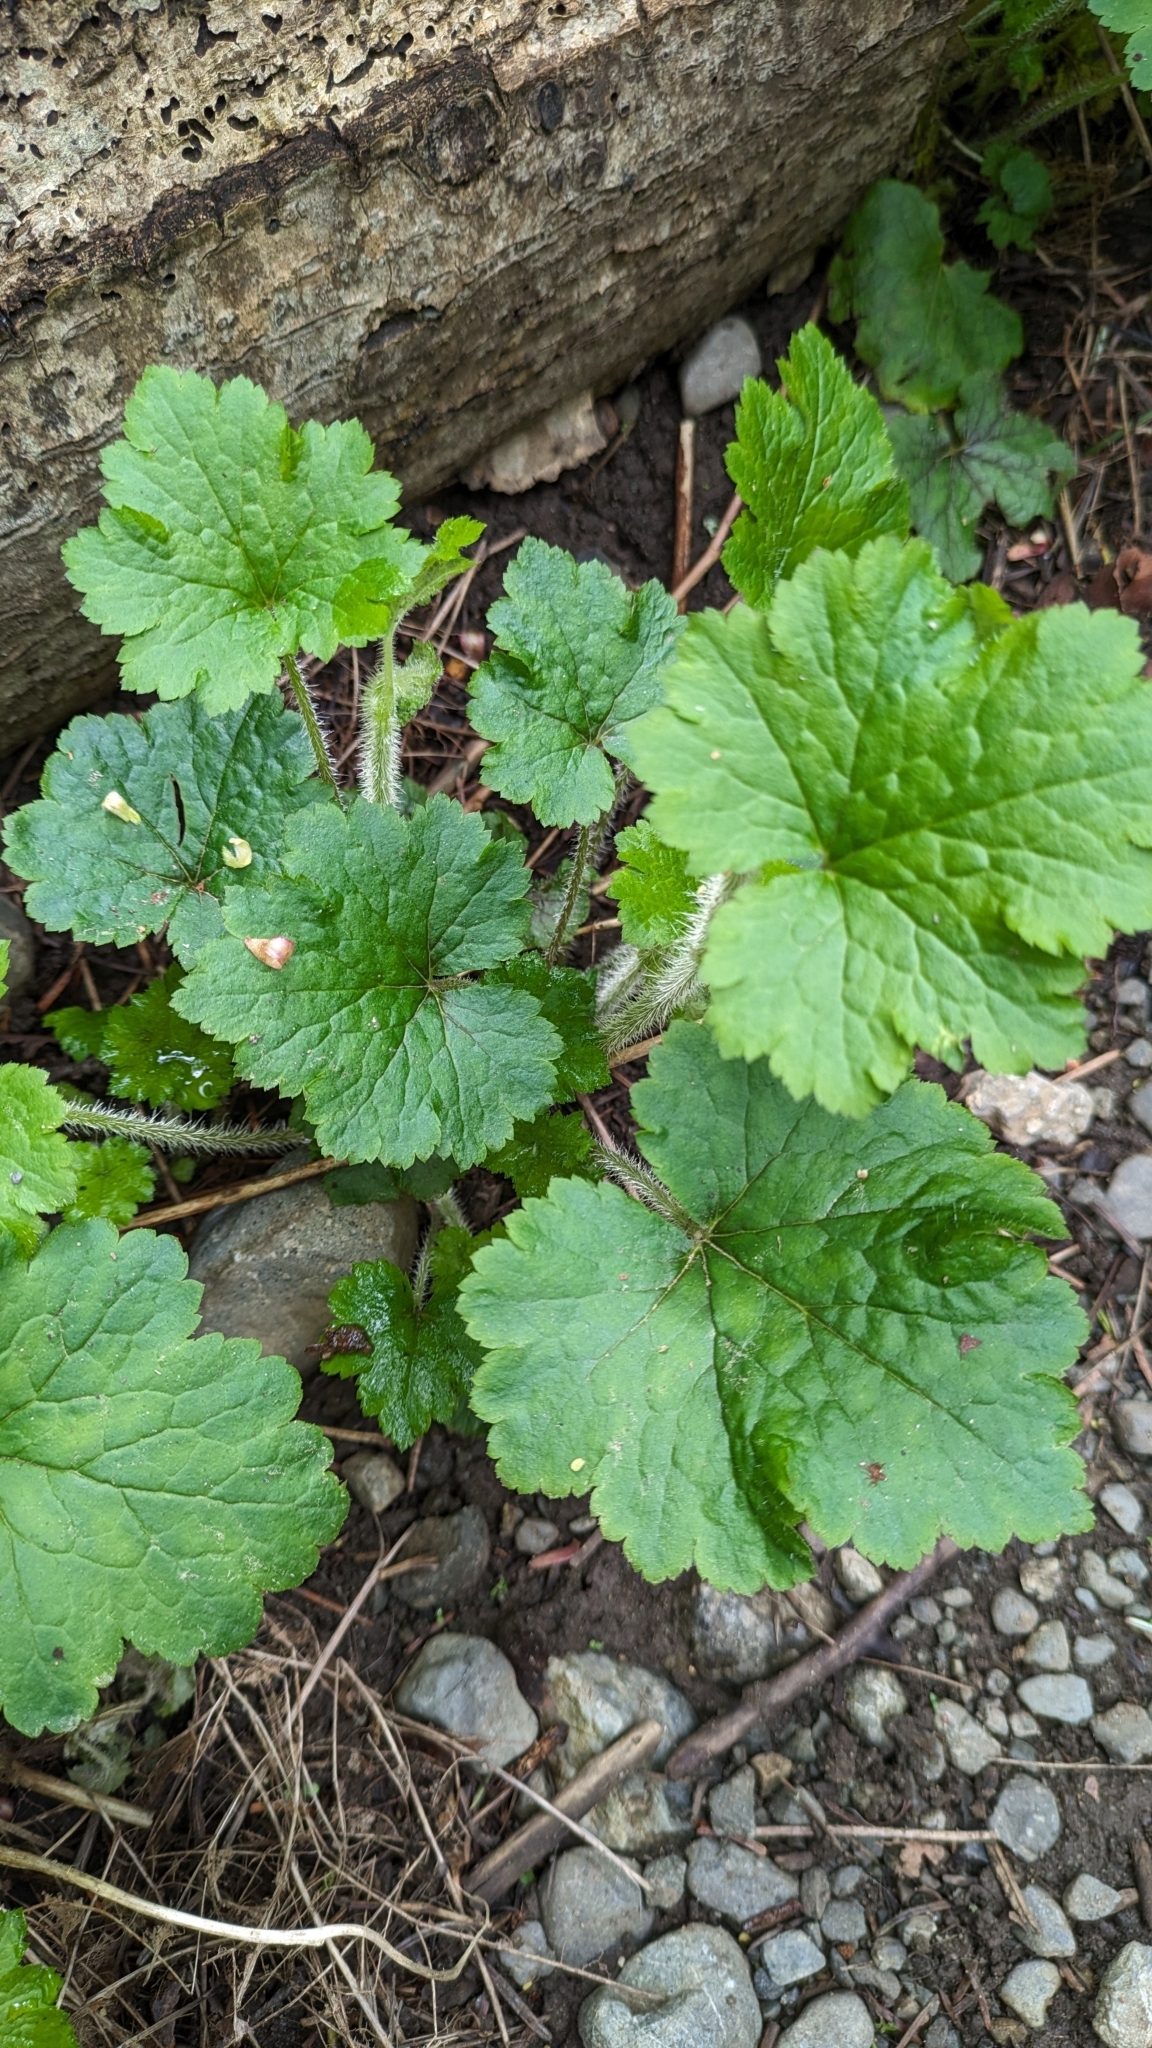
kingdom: Plantae
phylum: Tracheophyta
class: Magnoliopsida
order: Saxifragales
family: Saxifragaceae
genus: Tellima
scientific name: Tellima grandiflora
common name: Fringecups
